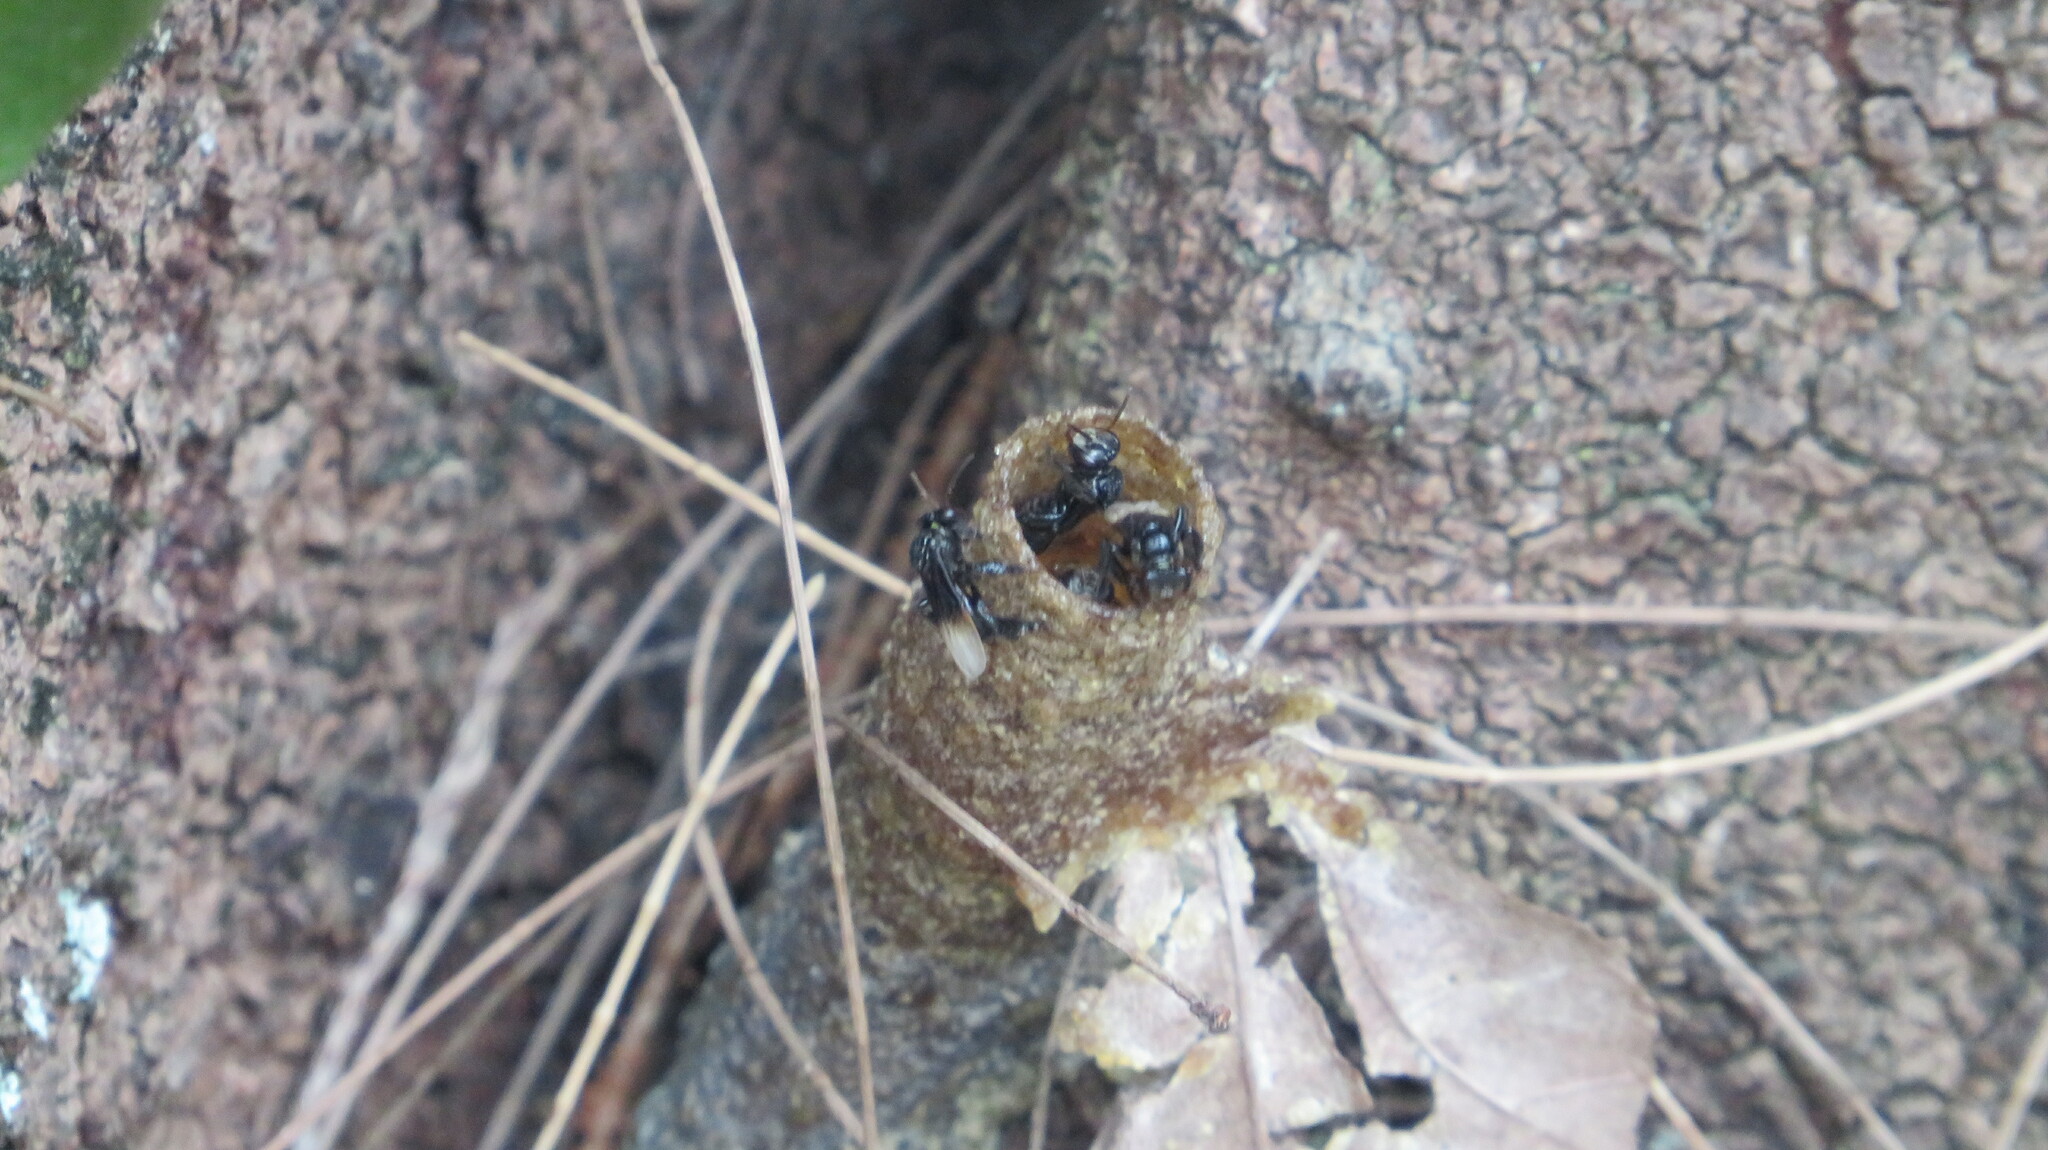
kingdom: Animalia
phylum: Arthropoda
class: Insecta
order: Hymenoptera
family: Apidae
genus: Tetragonula
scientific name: Tetragonula collina
